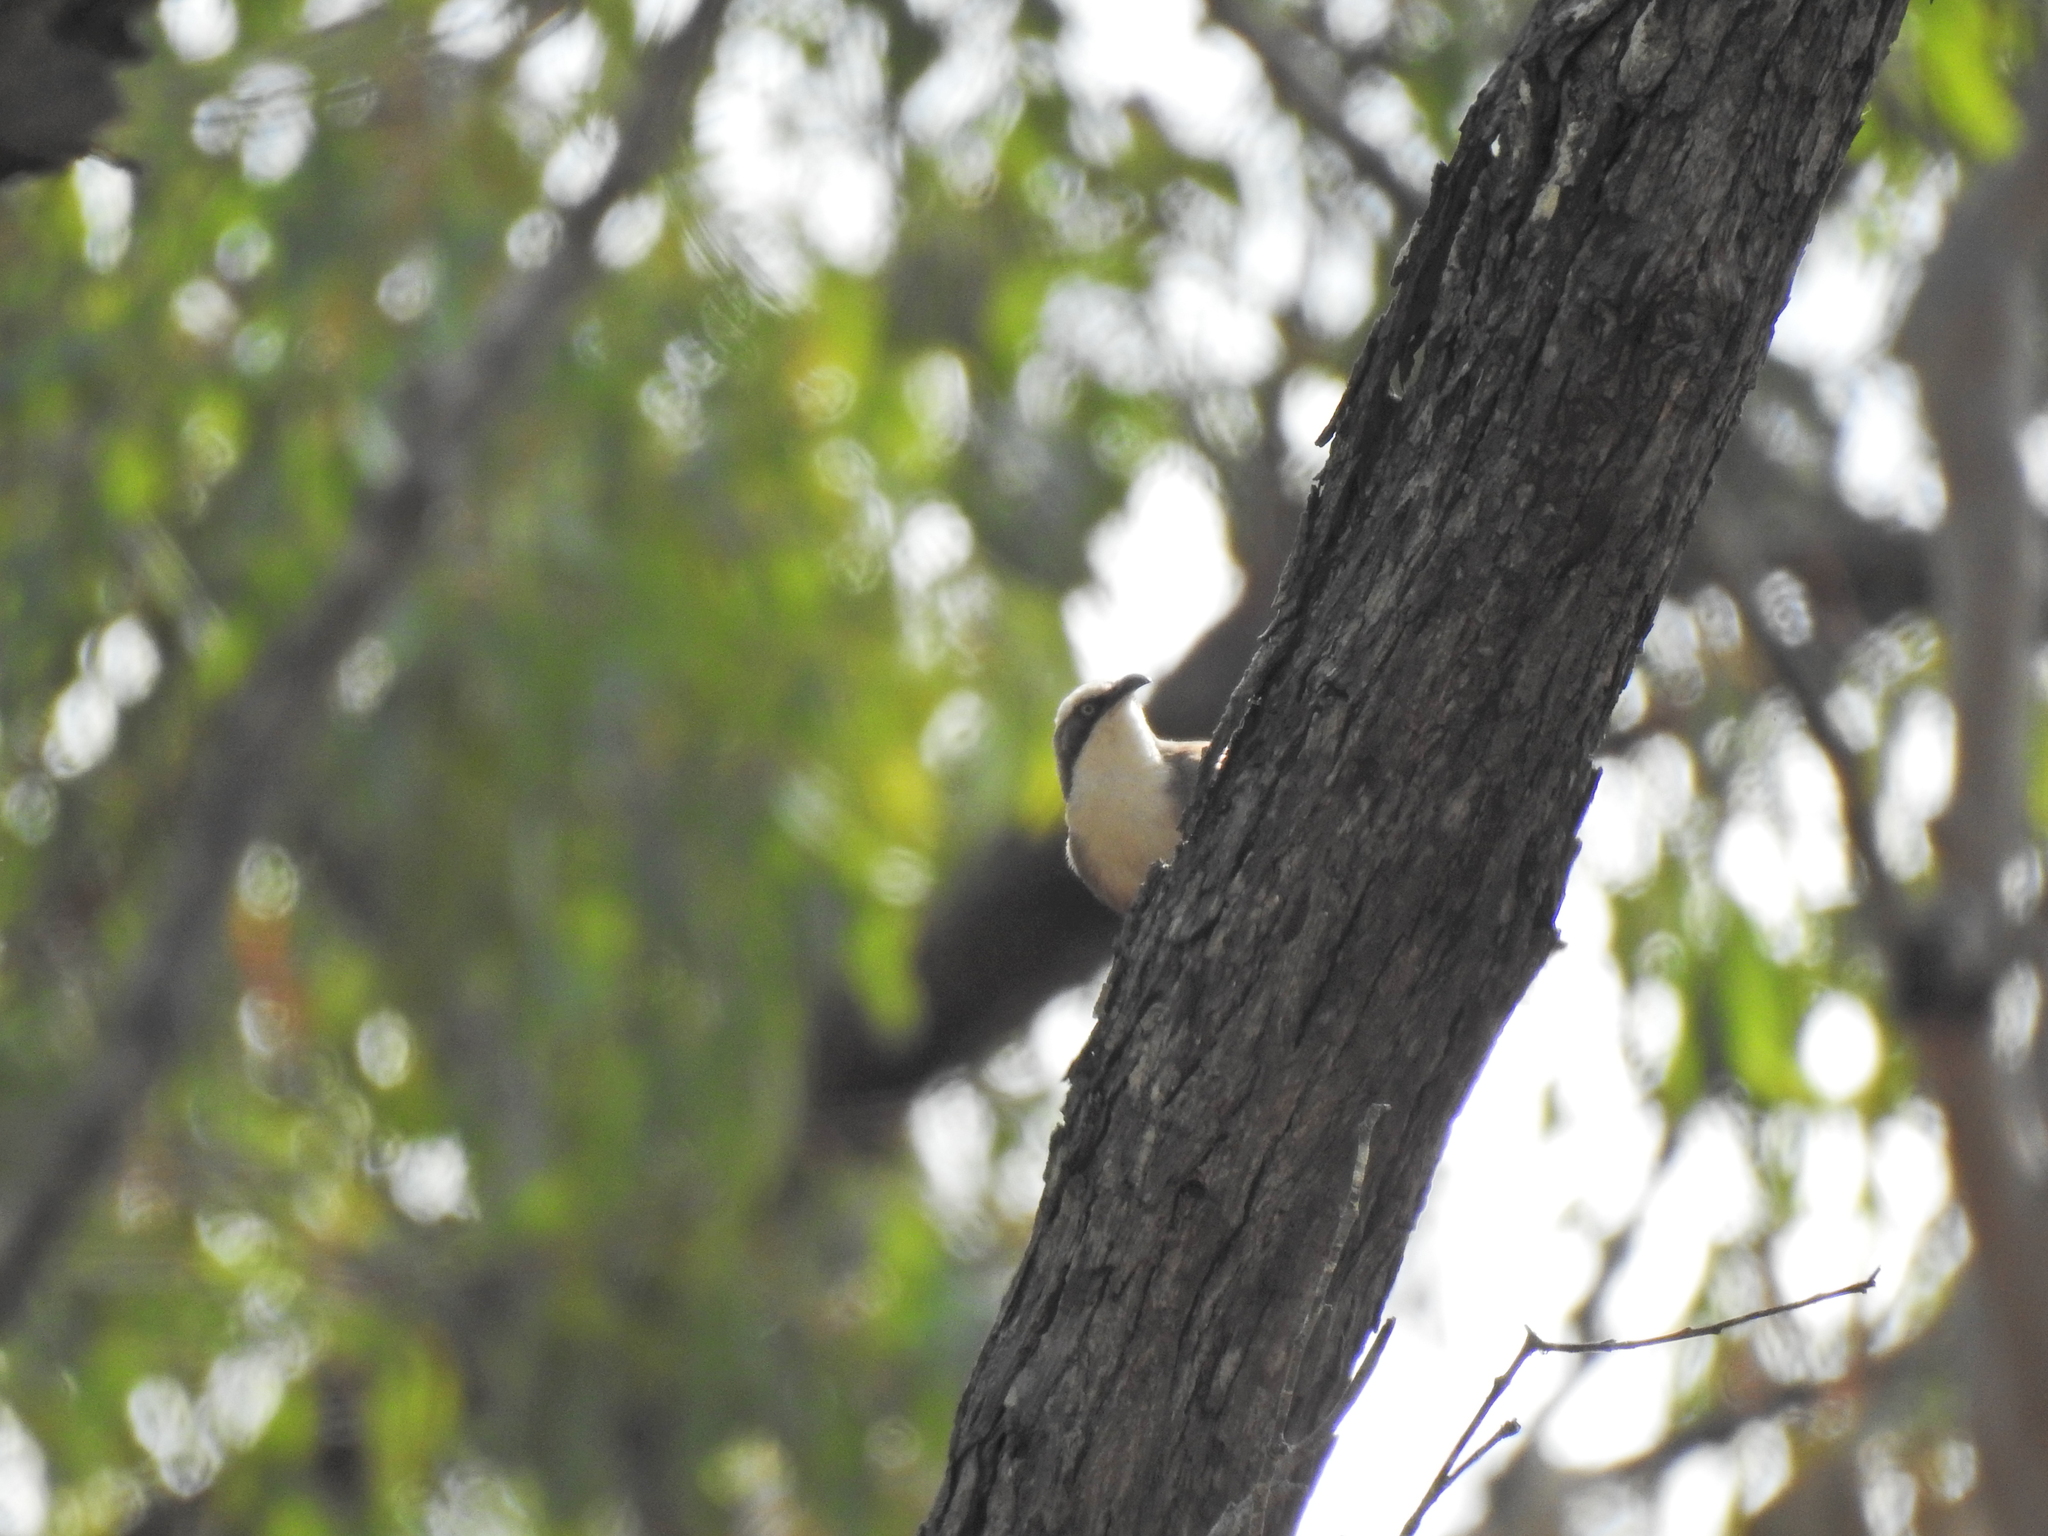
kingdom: Animalia
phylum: Chordata
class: Aves
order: Passeriformes
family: Pomatostomidae
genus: Pomatostomus
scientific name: Pomatostomus temporalis
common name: Grey-crowned babbler
